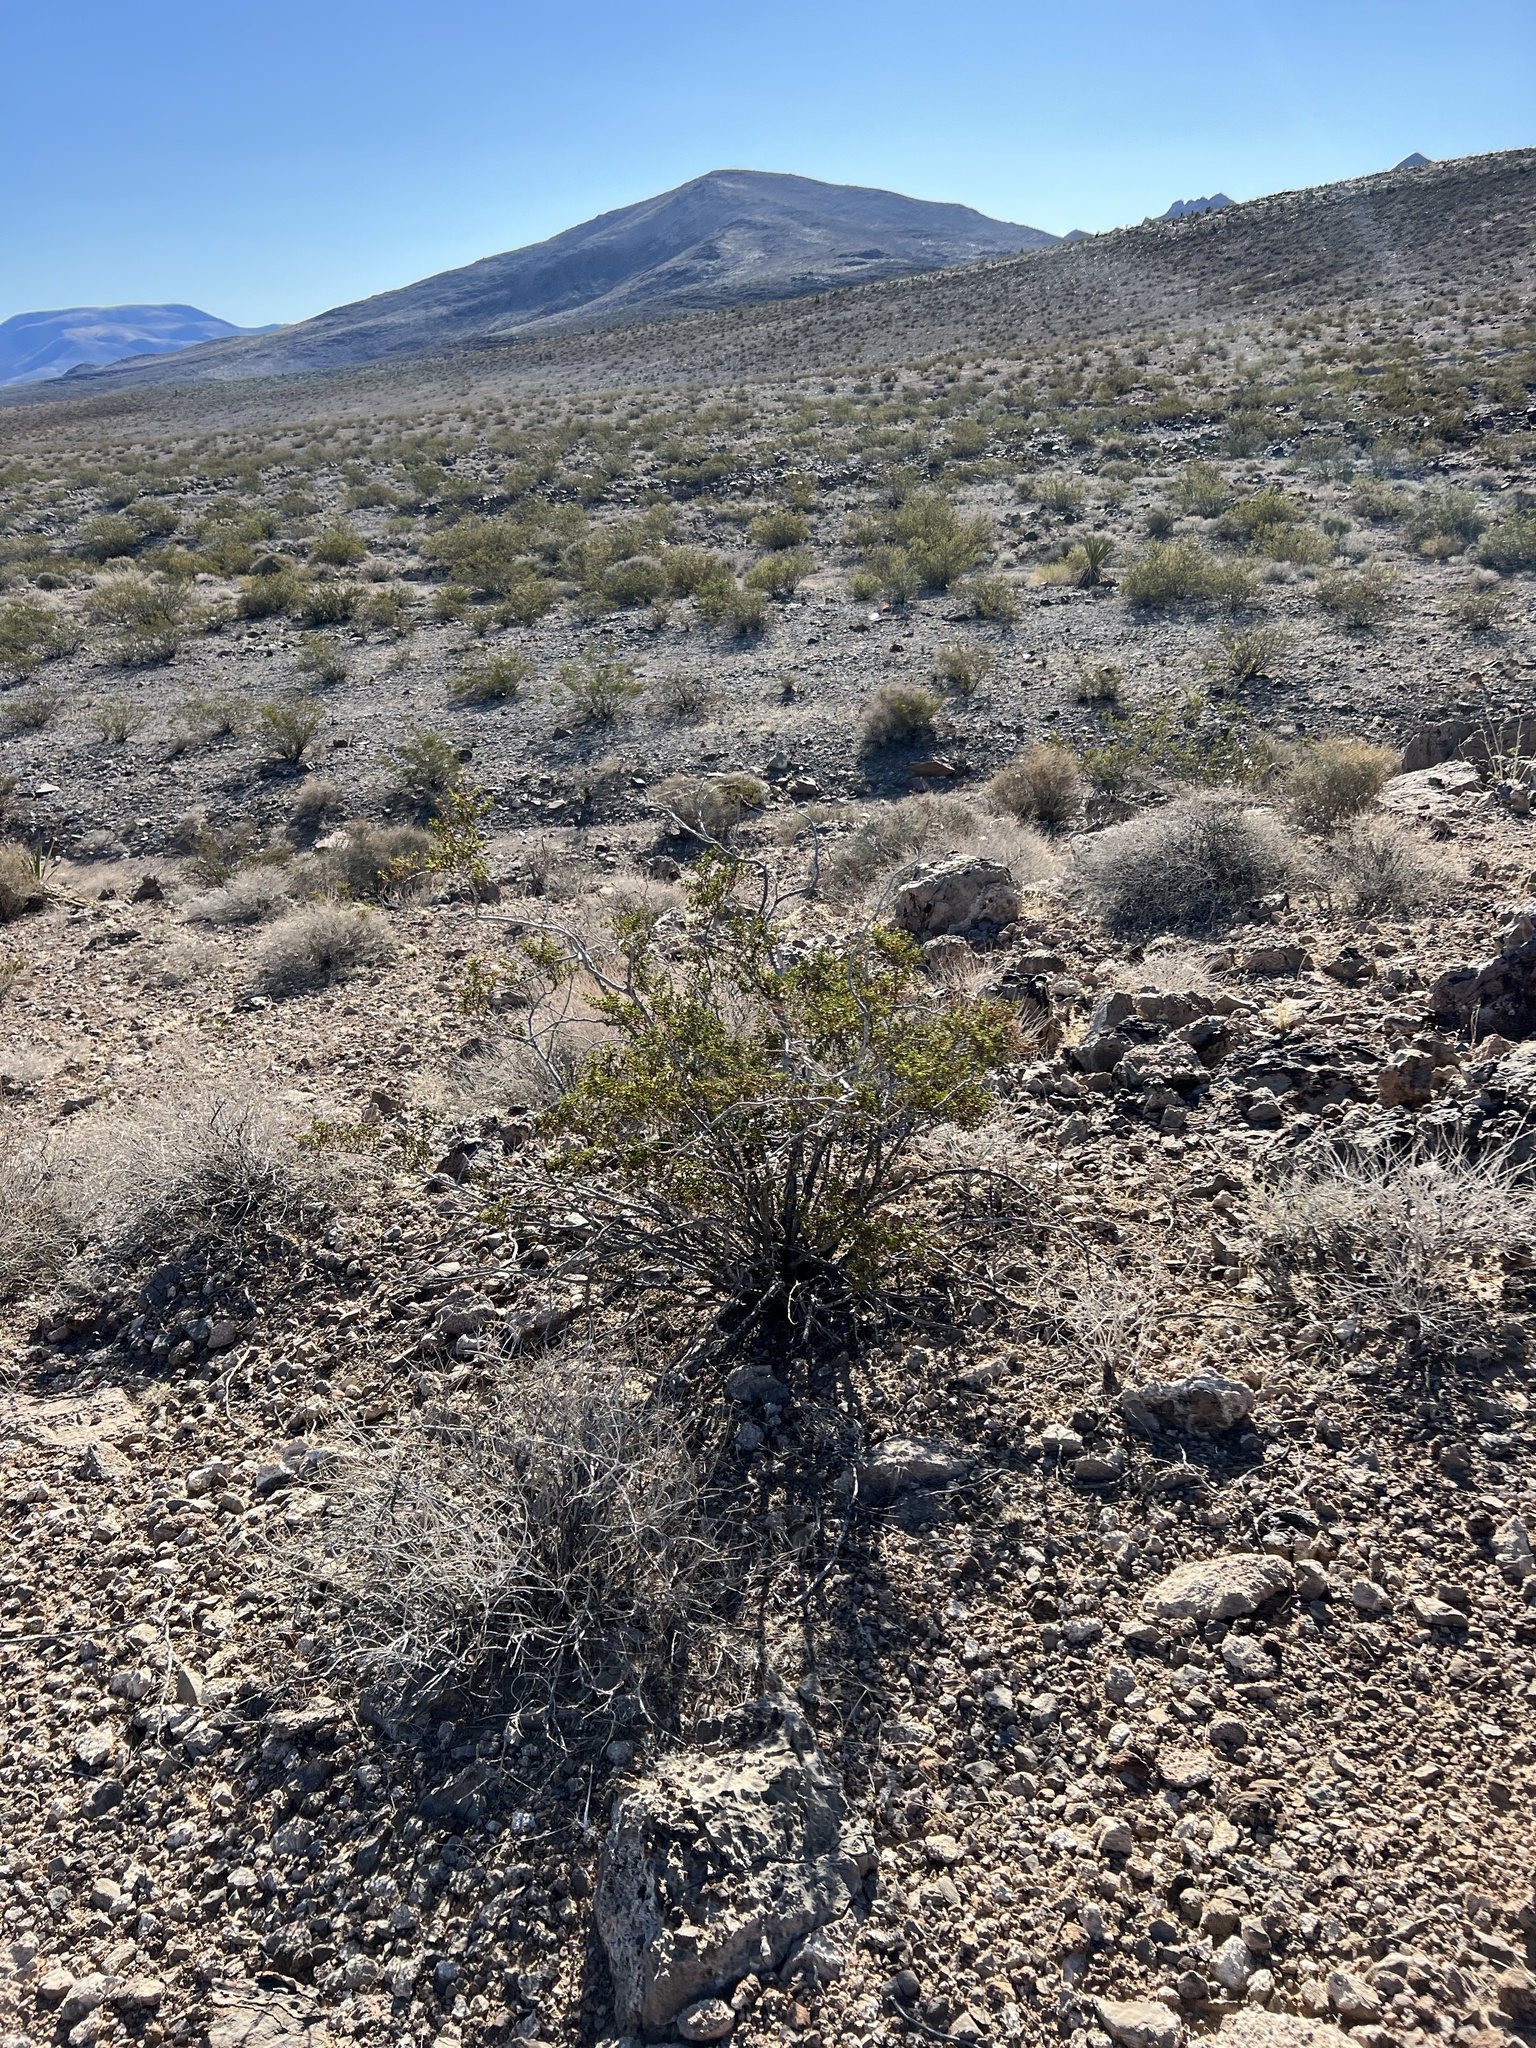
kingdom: Plantae
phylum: Tracheophyta
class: Magnoliopsida
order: Zygophyllales
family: Zygophyllaceae
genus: Larrea
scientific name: Larrea tridentata
